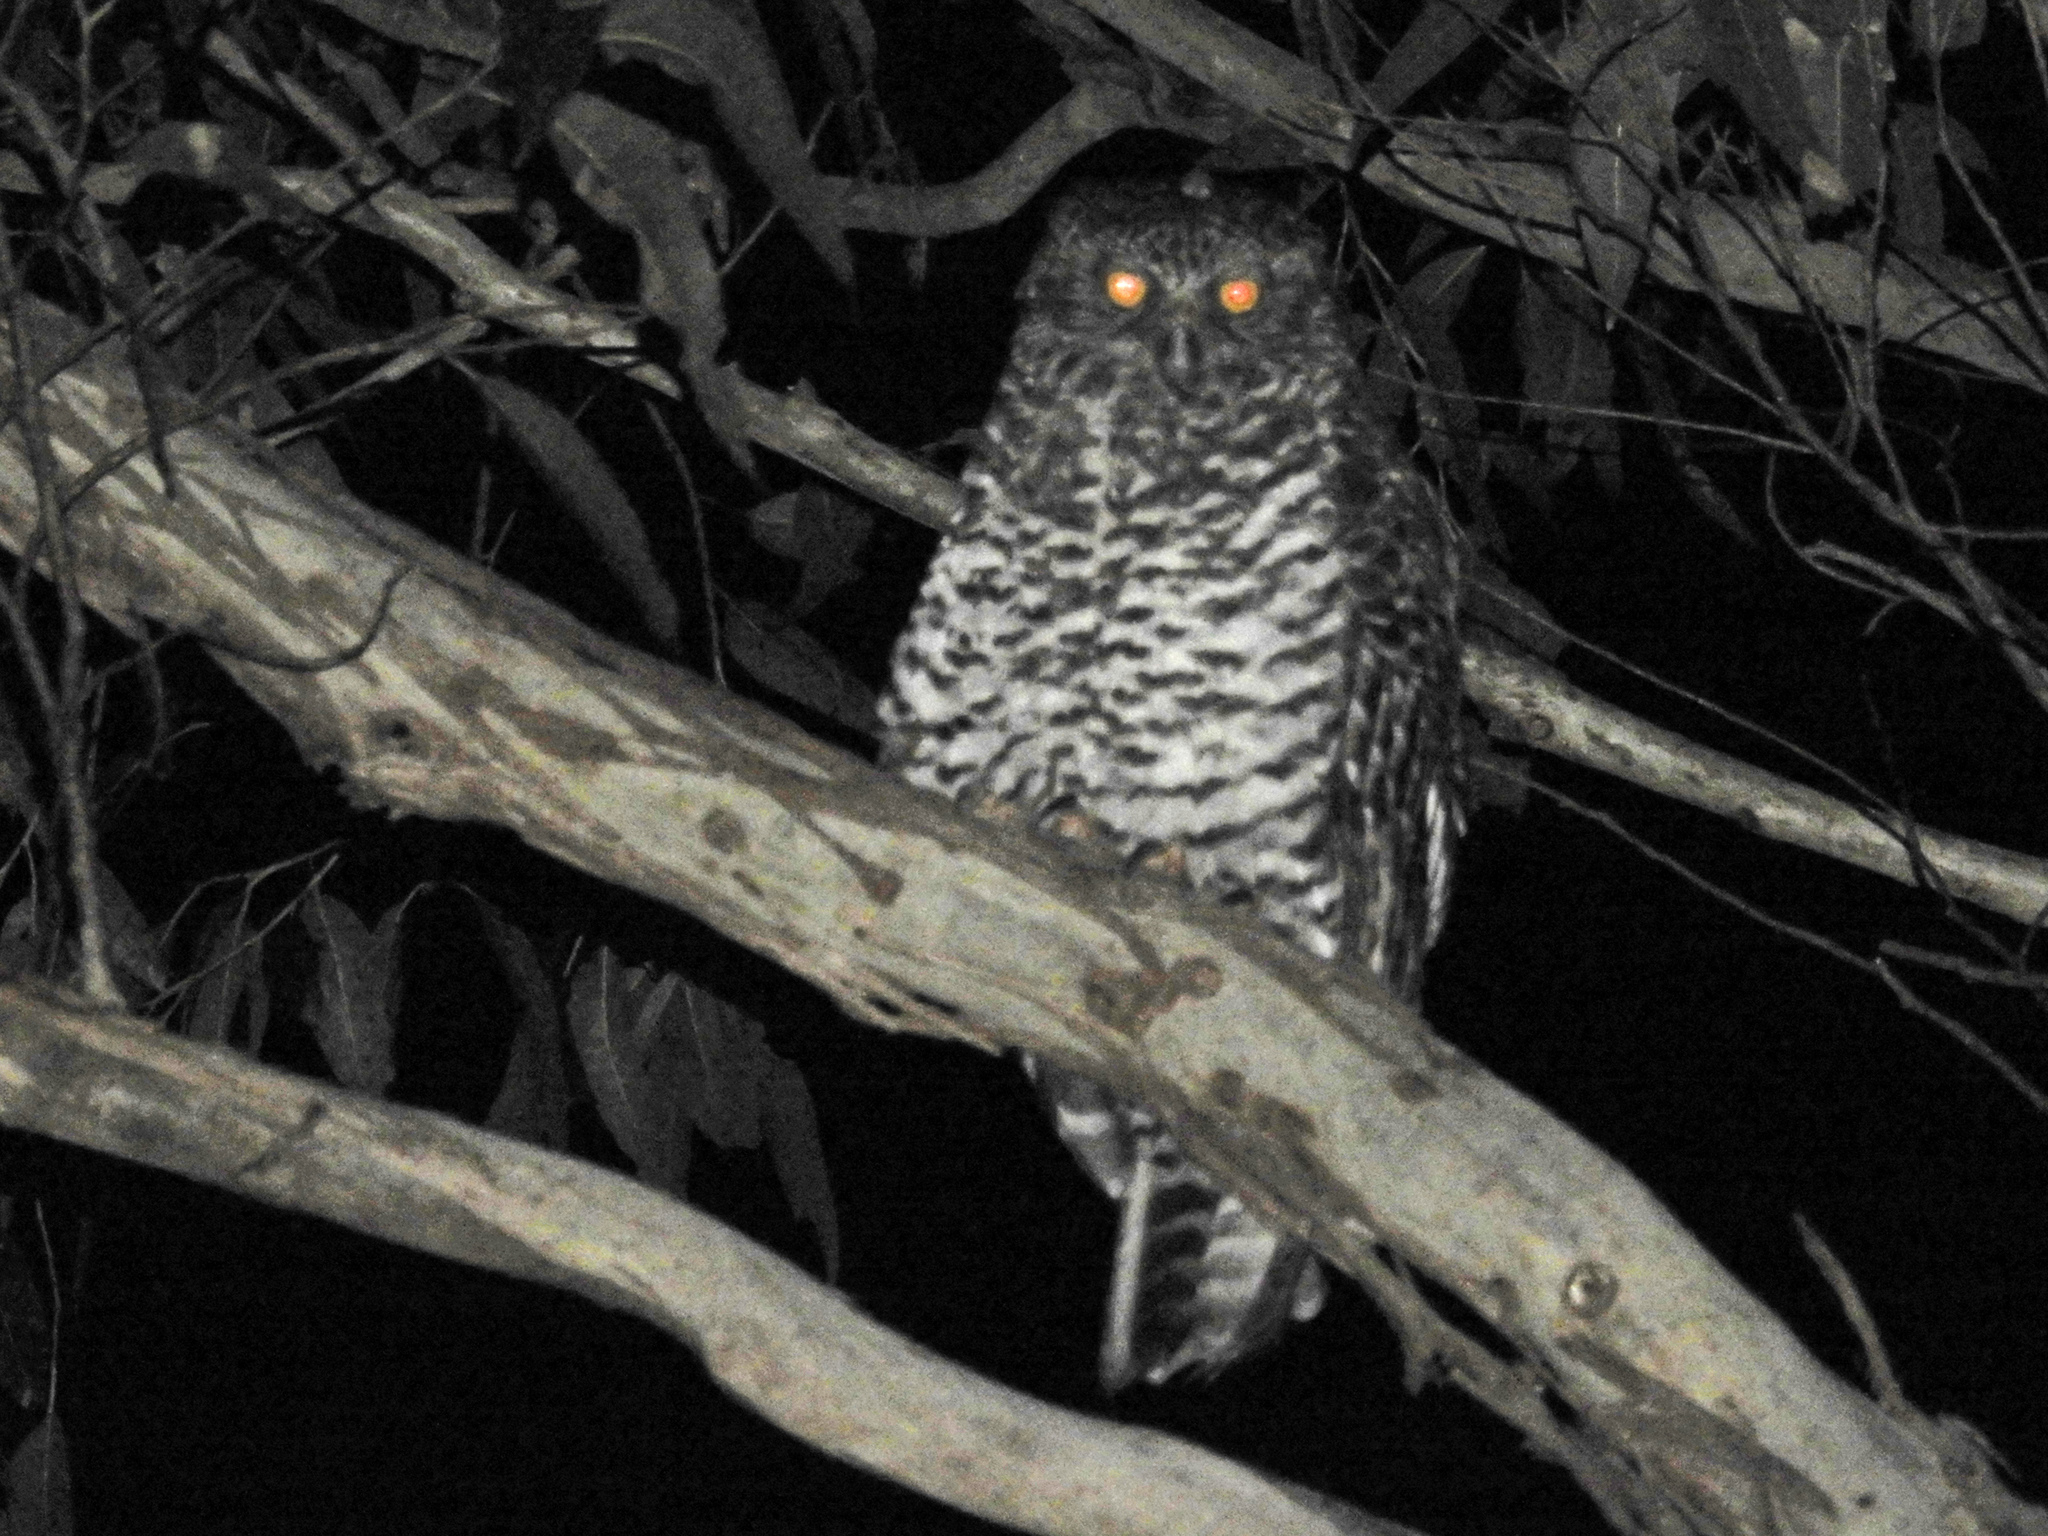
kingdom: Animalia
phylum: Chordata
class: Aves
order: Strigiformes
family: Strigidae
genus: Ninox
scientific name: Ninox strenua
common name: Powerful owl
